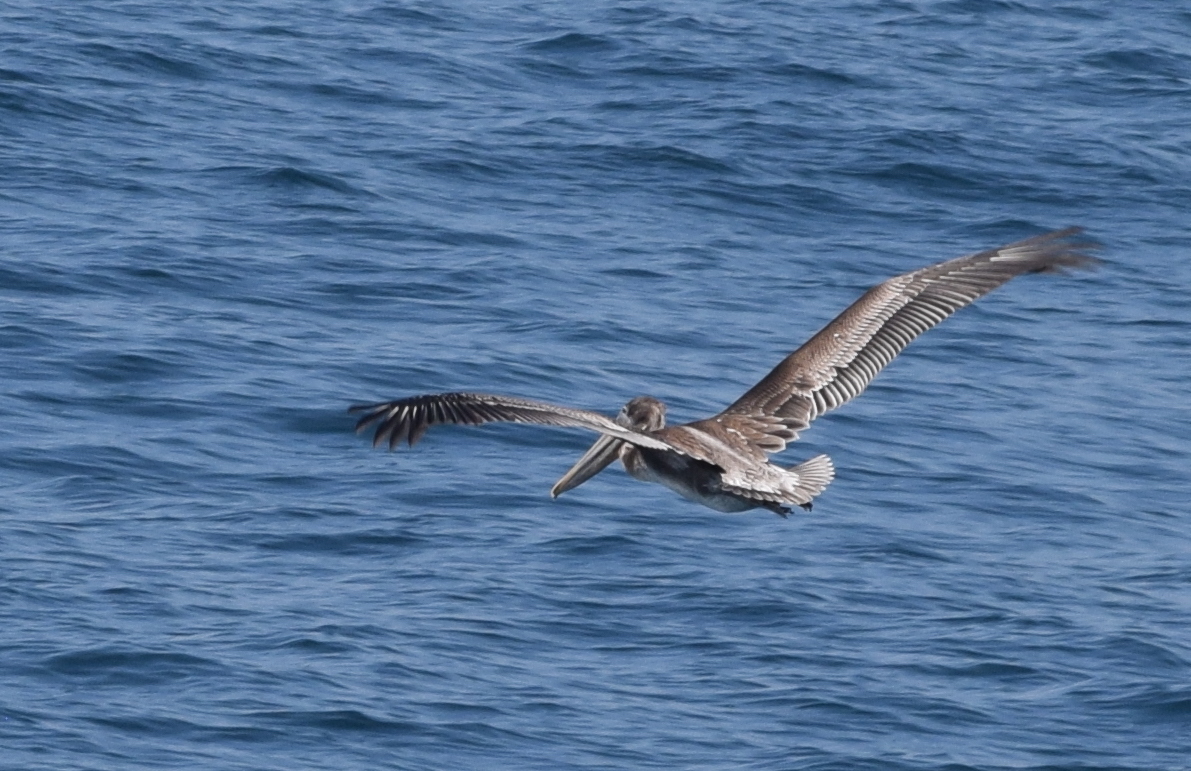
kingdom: Animalia
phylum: Chordata
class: Aves
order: Pelecaniformes
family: Pelecanidae
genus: Pelecanus
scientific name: Pelecanus occidentalis
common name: Brown pelican
